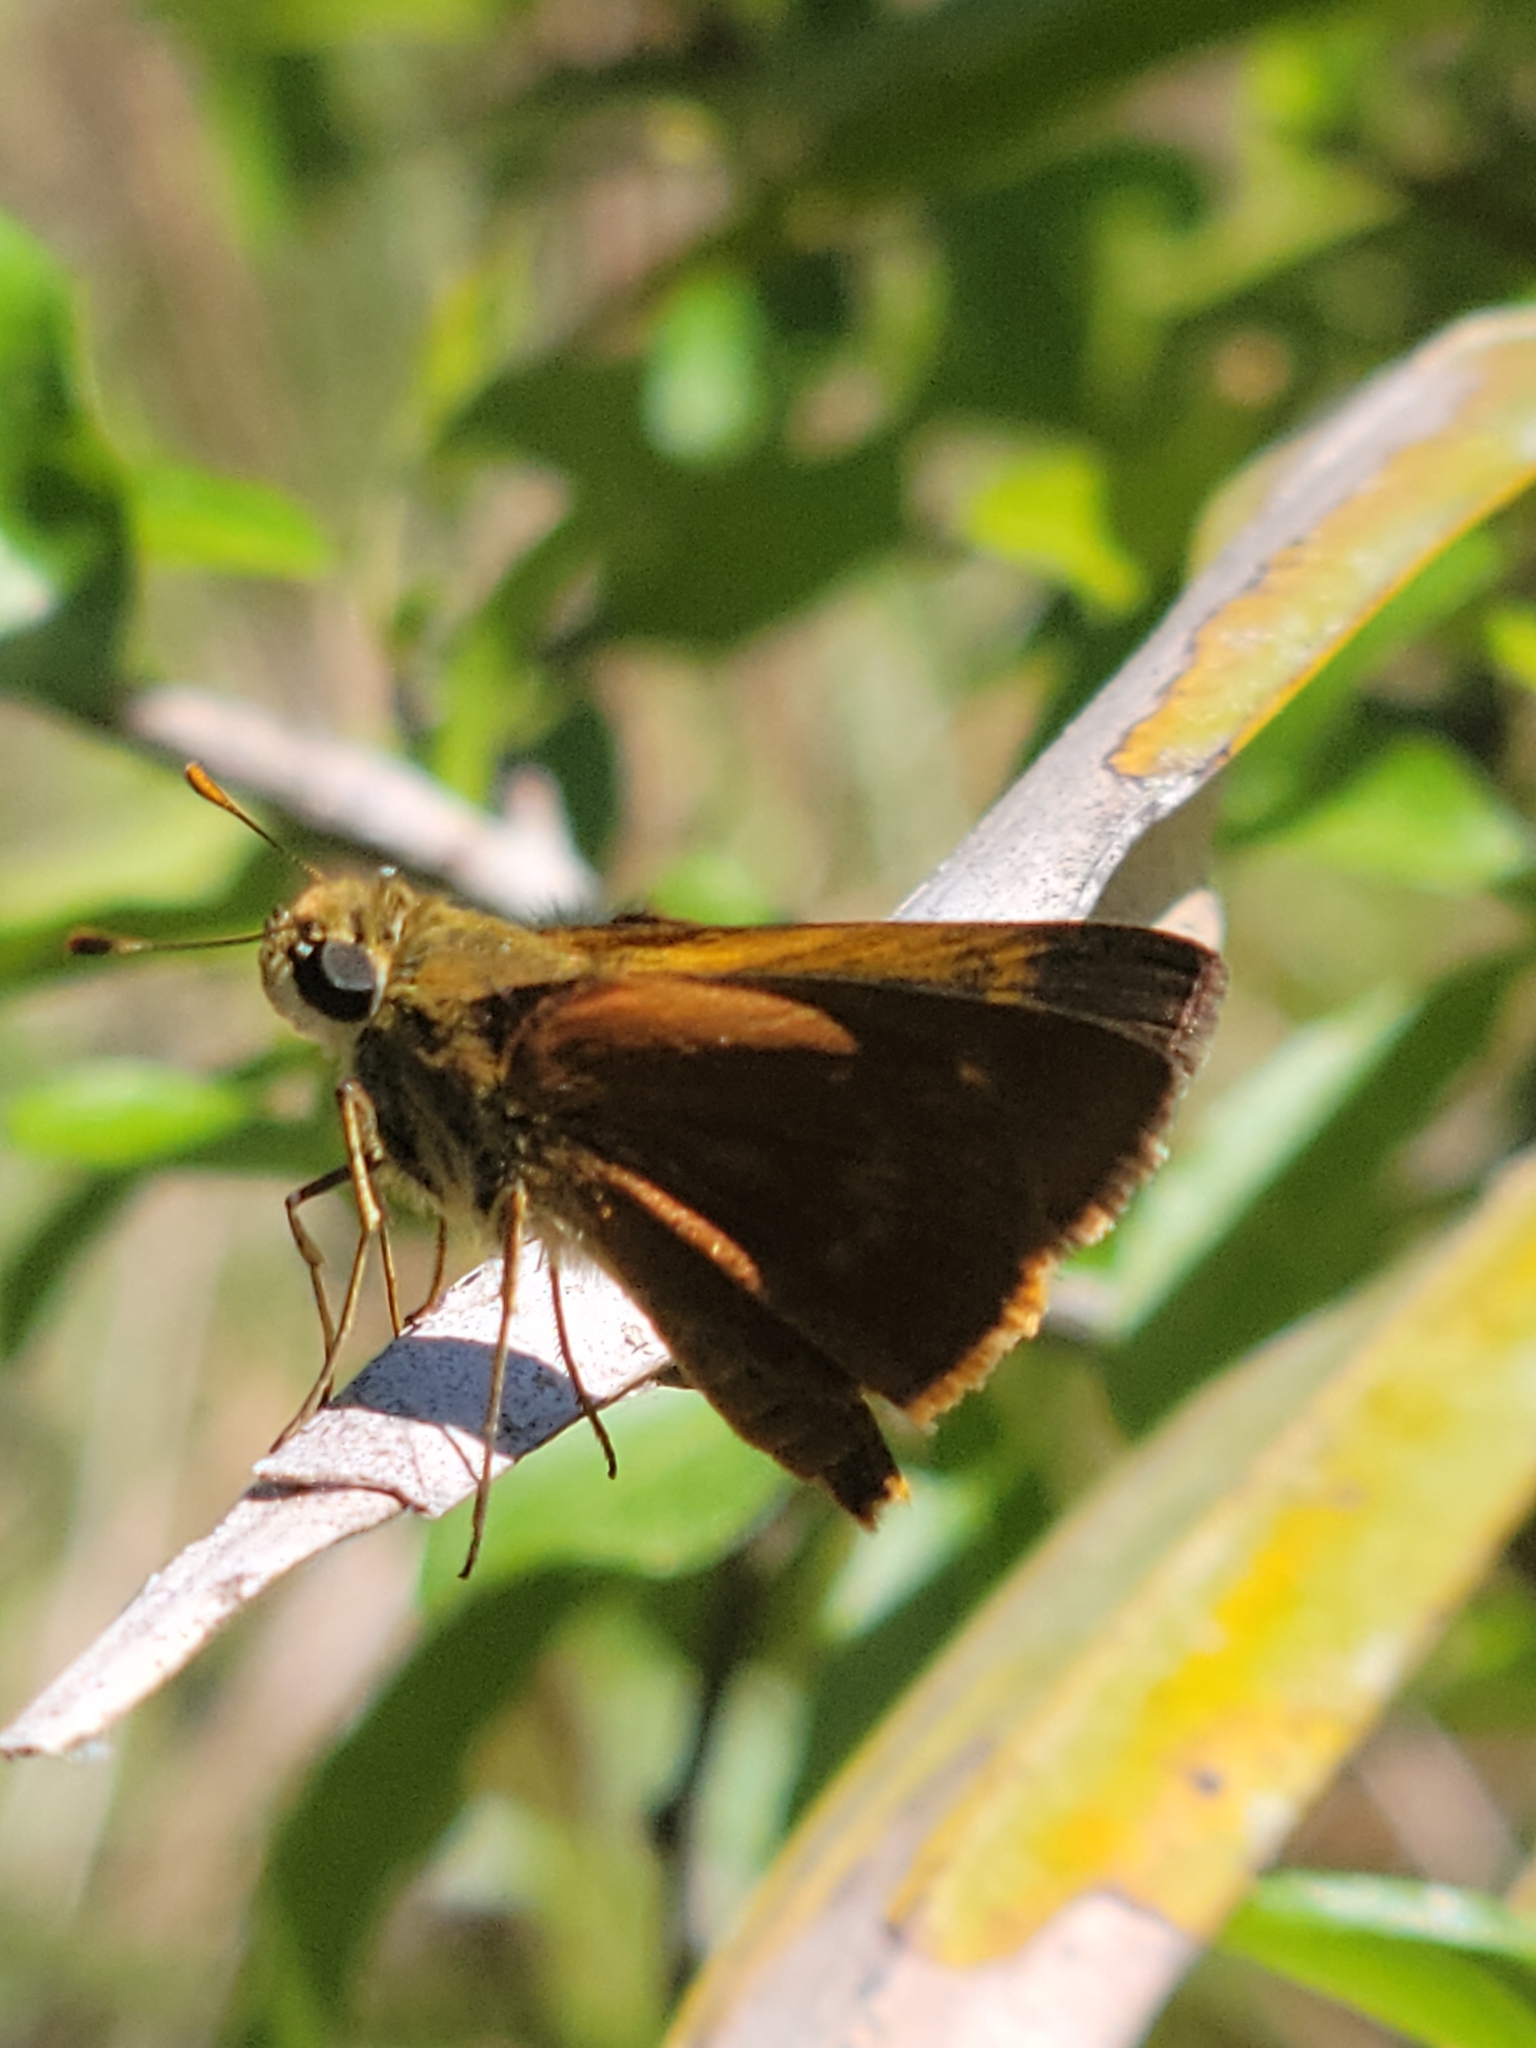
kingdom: Animalia
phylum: Arthropoda
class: Insecta
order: Lepidoptera
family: Hesperiidae
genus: Polites
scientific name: Polites otho
